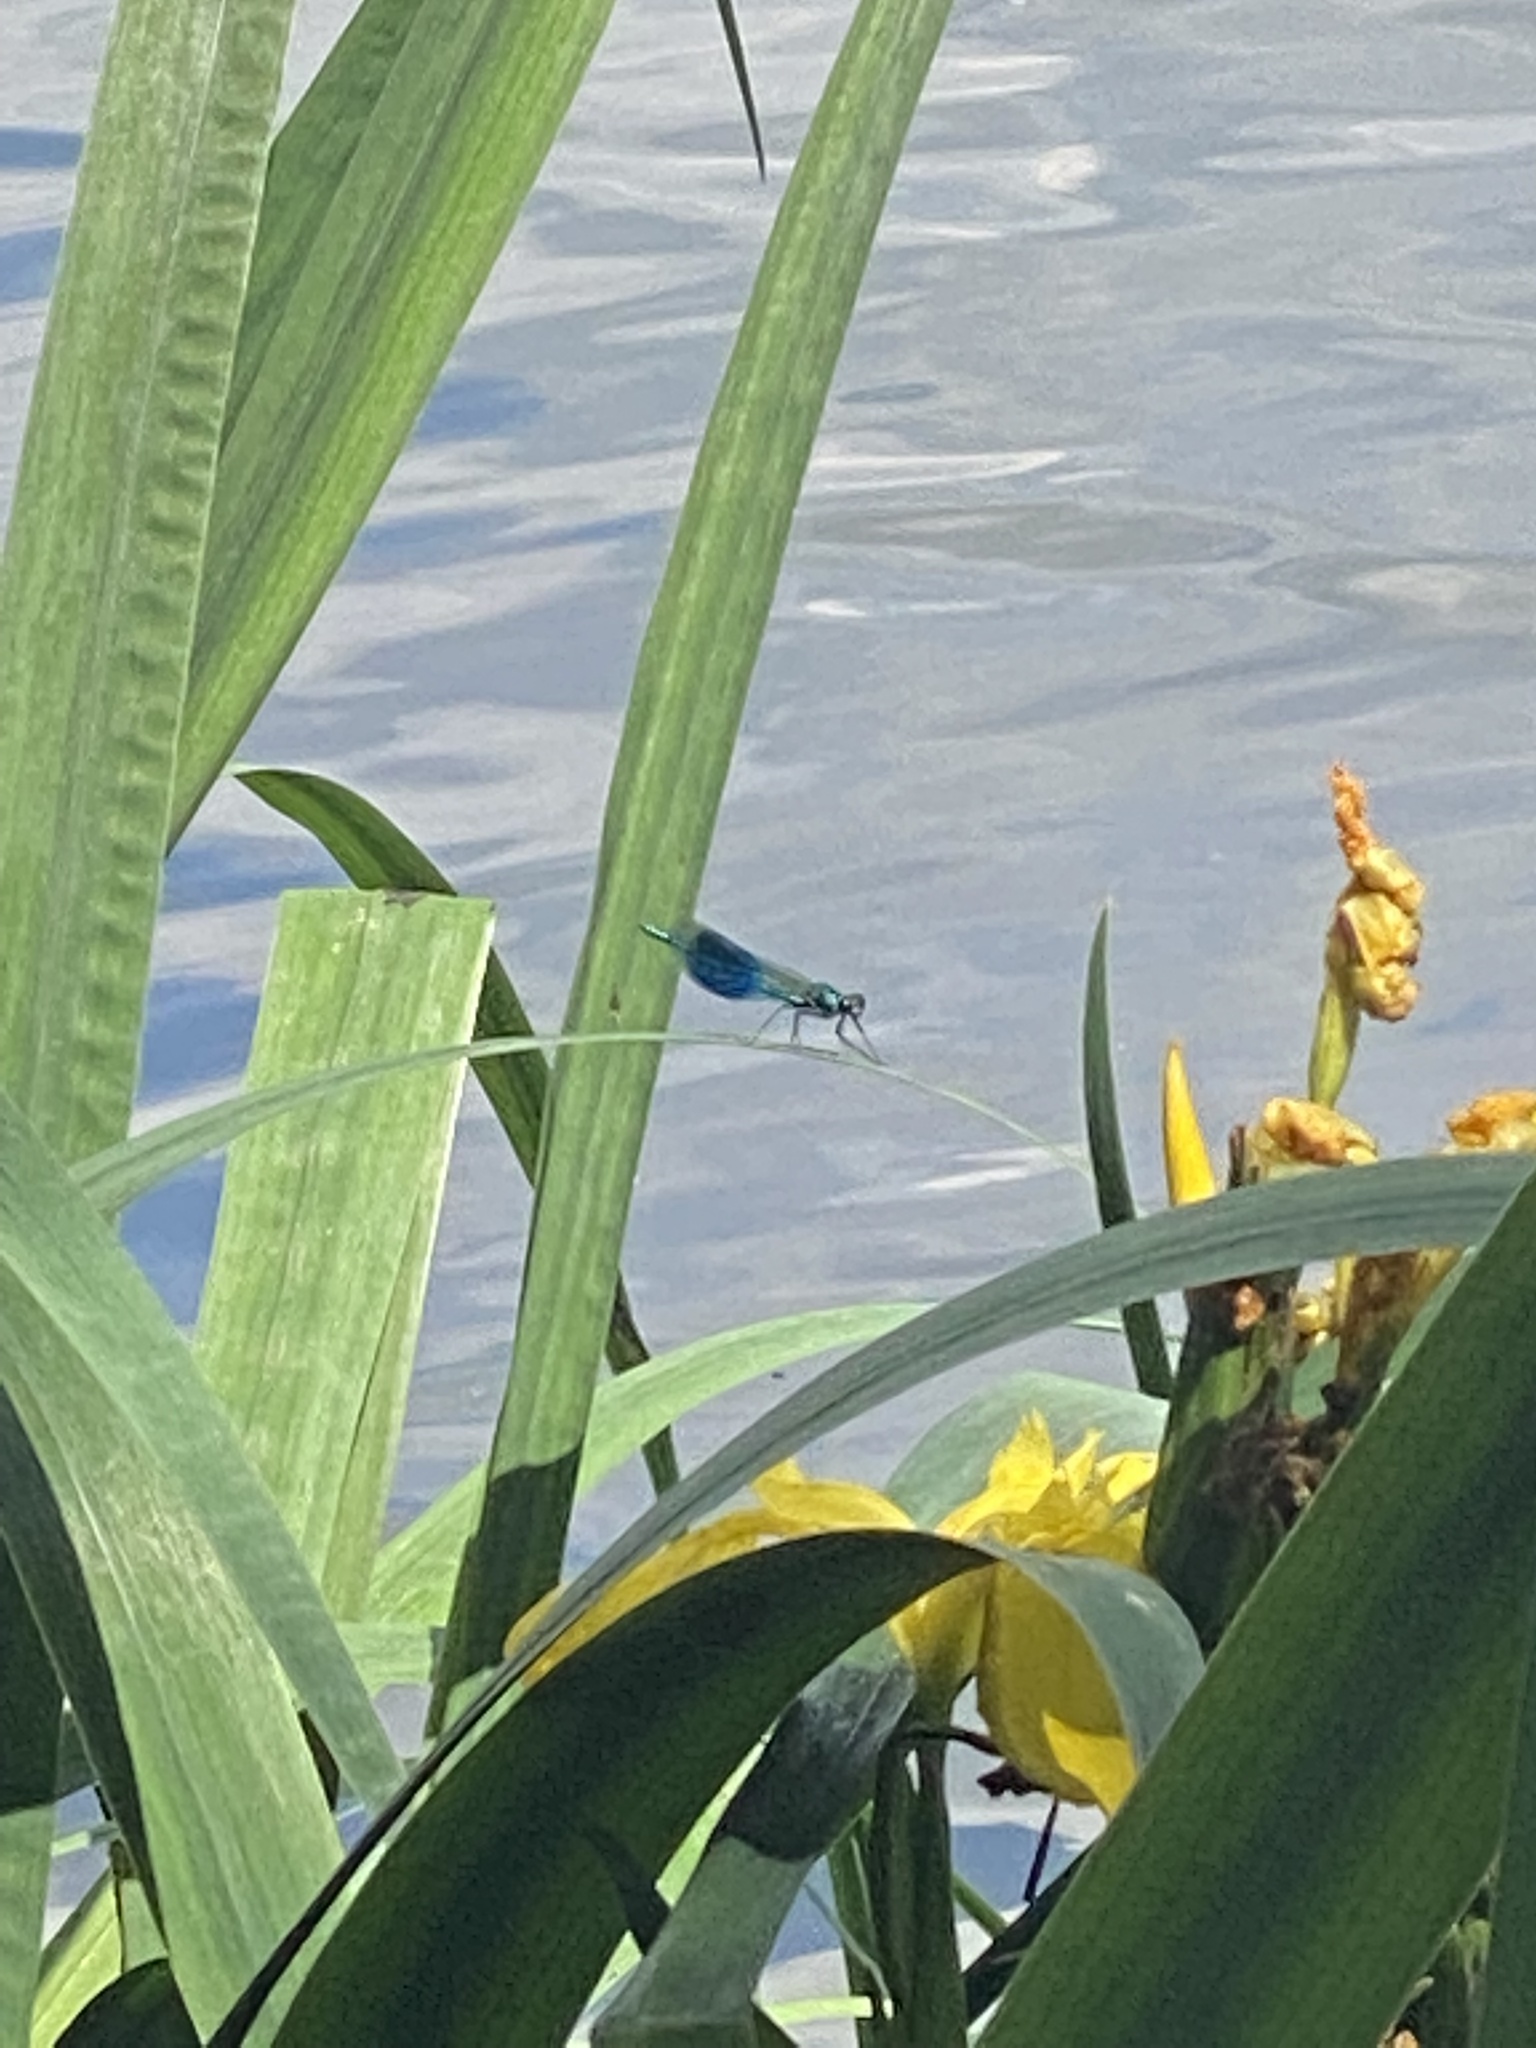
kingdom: Animalia
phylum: Arthropoda
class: Insecta
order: Odonata
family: Calopterygidae
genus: Calopteryx
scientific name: Calopteryx splendens
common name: Banded demoiselle
